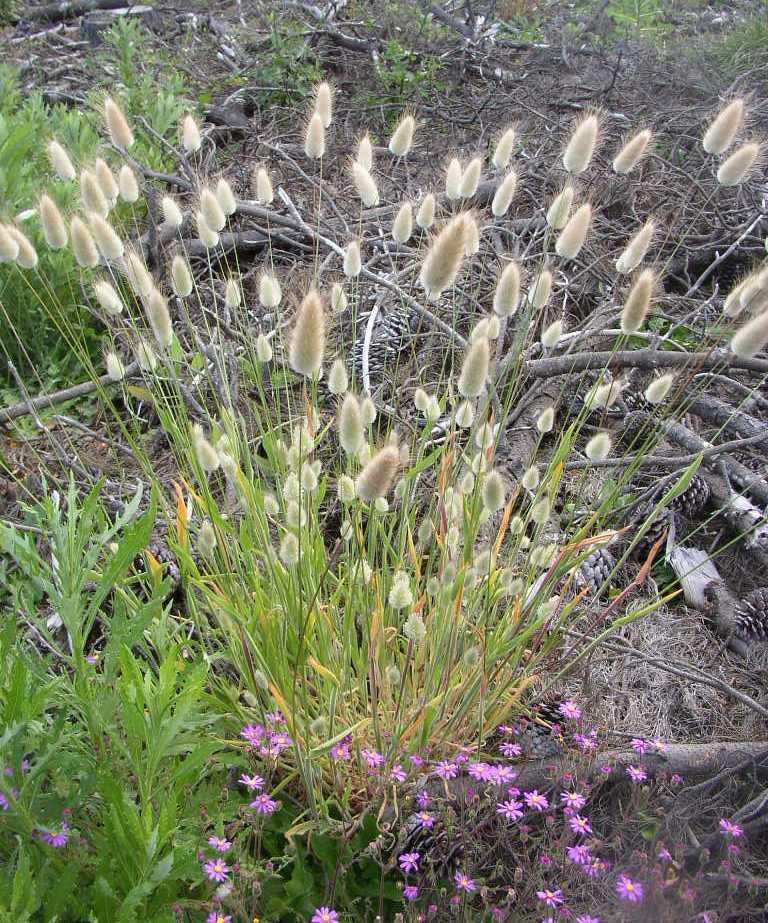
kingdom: Plantae
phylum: Tracheophyta
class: Liliopsida
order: Poales
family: Poaceae
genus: Lagurus
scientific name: Lagurus ovatus
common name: Hare's-tail
